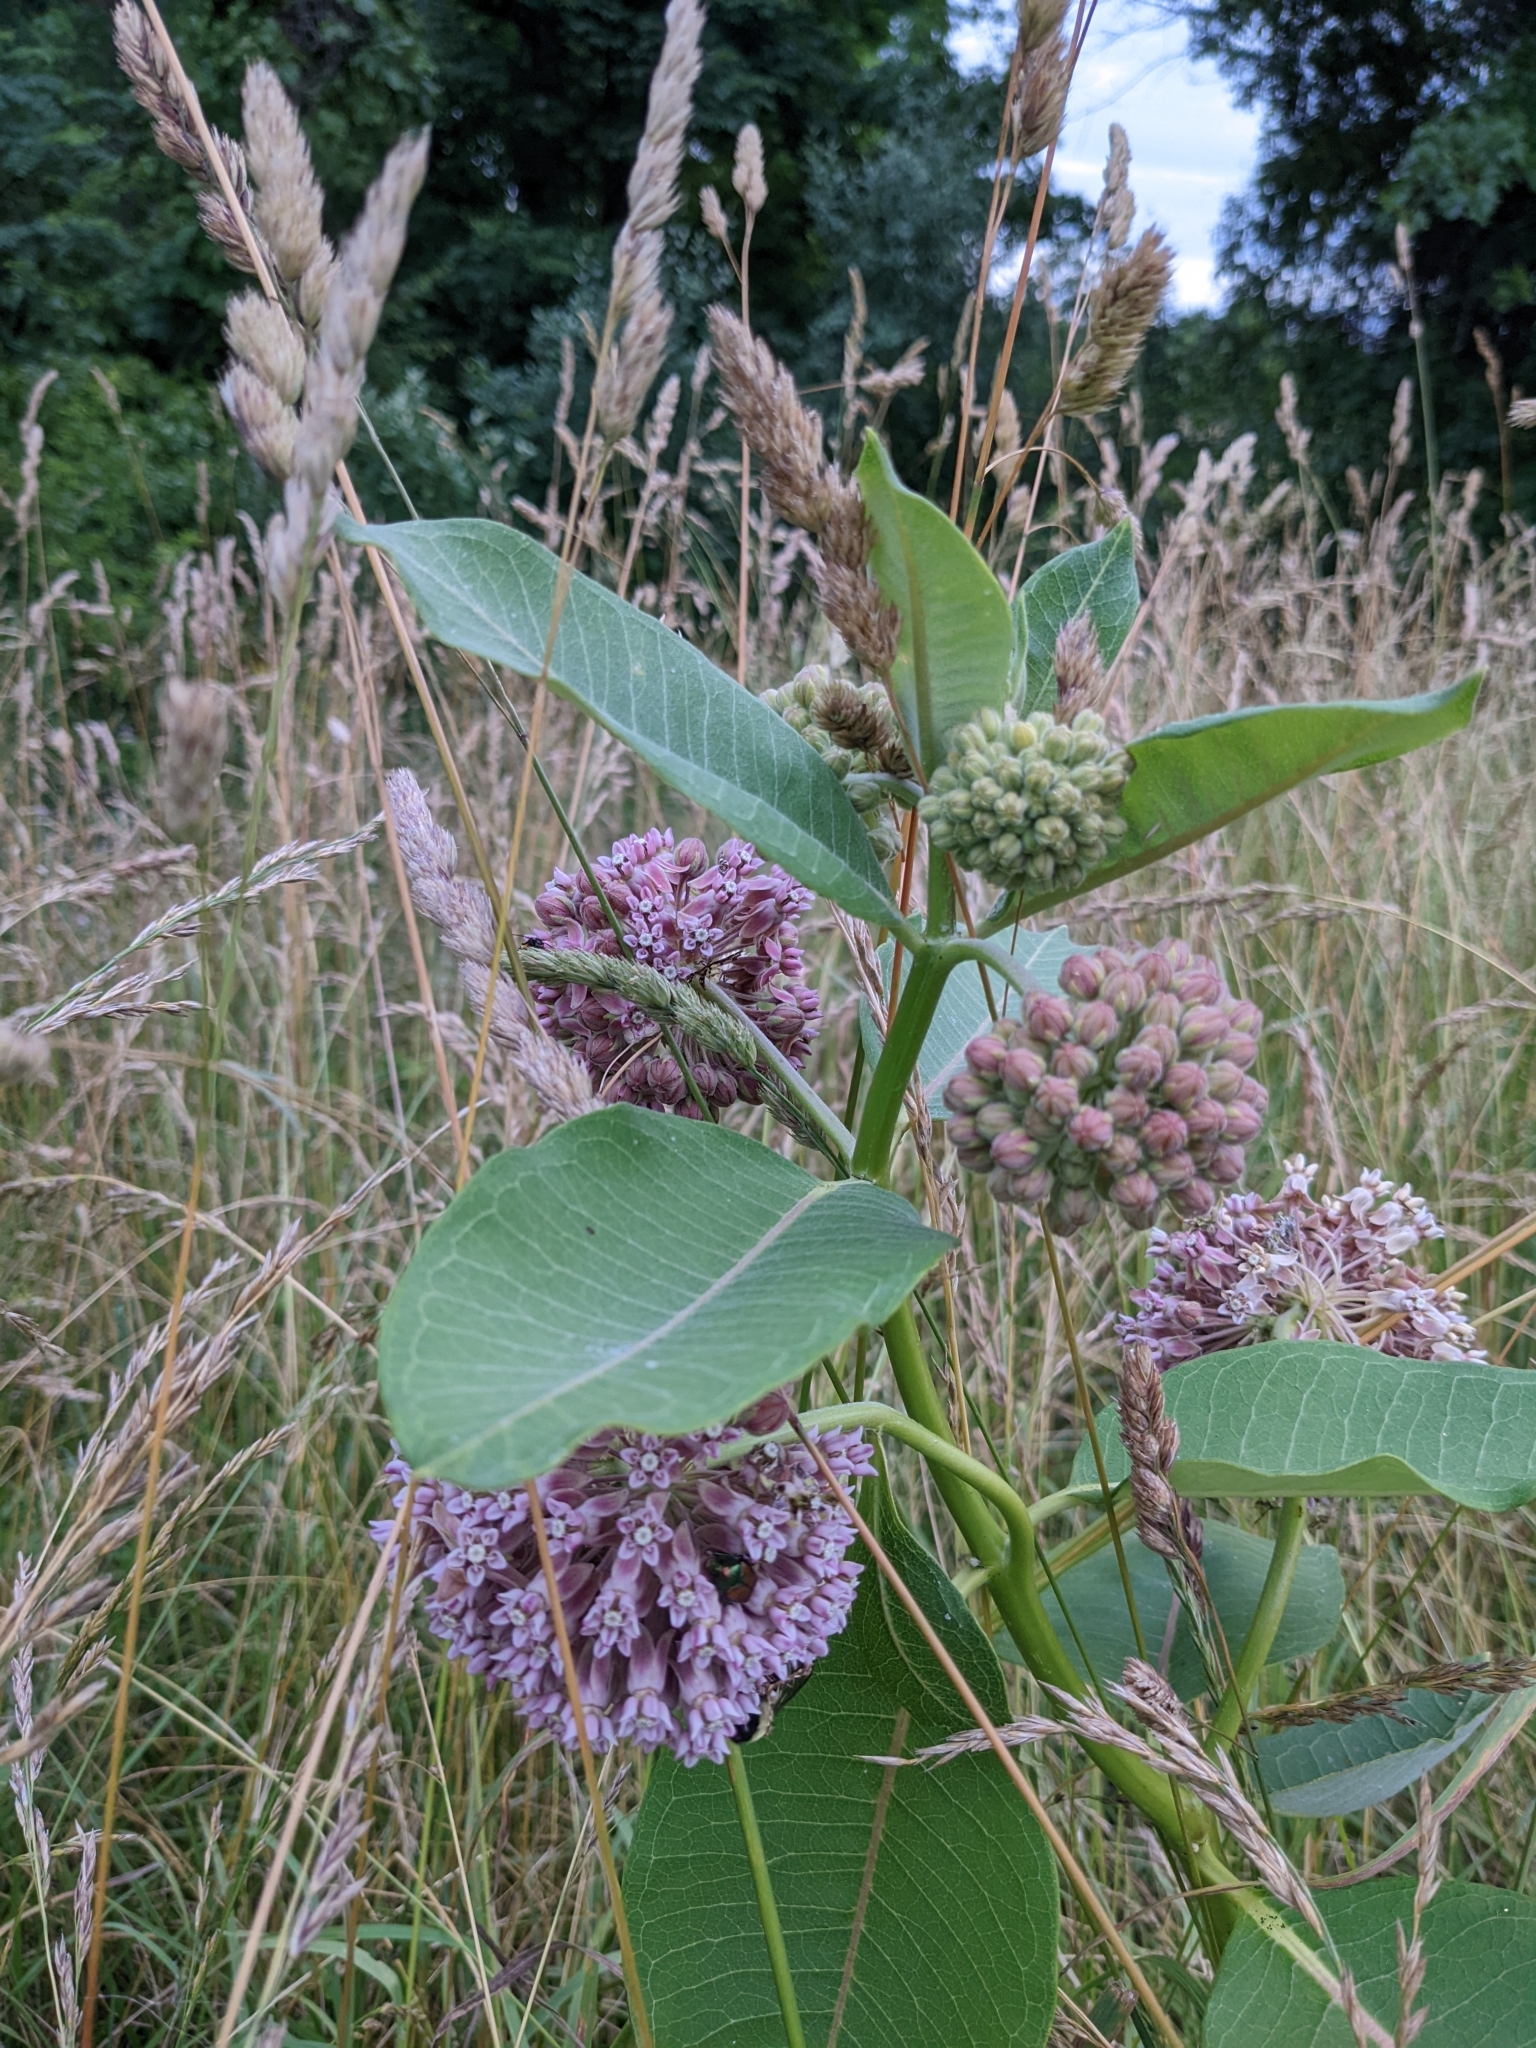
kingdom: Plantae
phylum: Tracheophyta
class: Magnoliopsida
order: Gentianales
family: Apocynaceae
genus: Asclepias
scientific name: Asclepias syriaca
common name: Common milkweed
